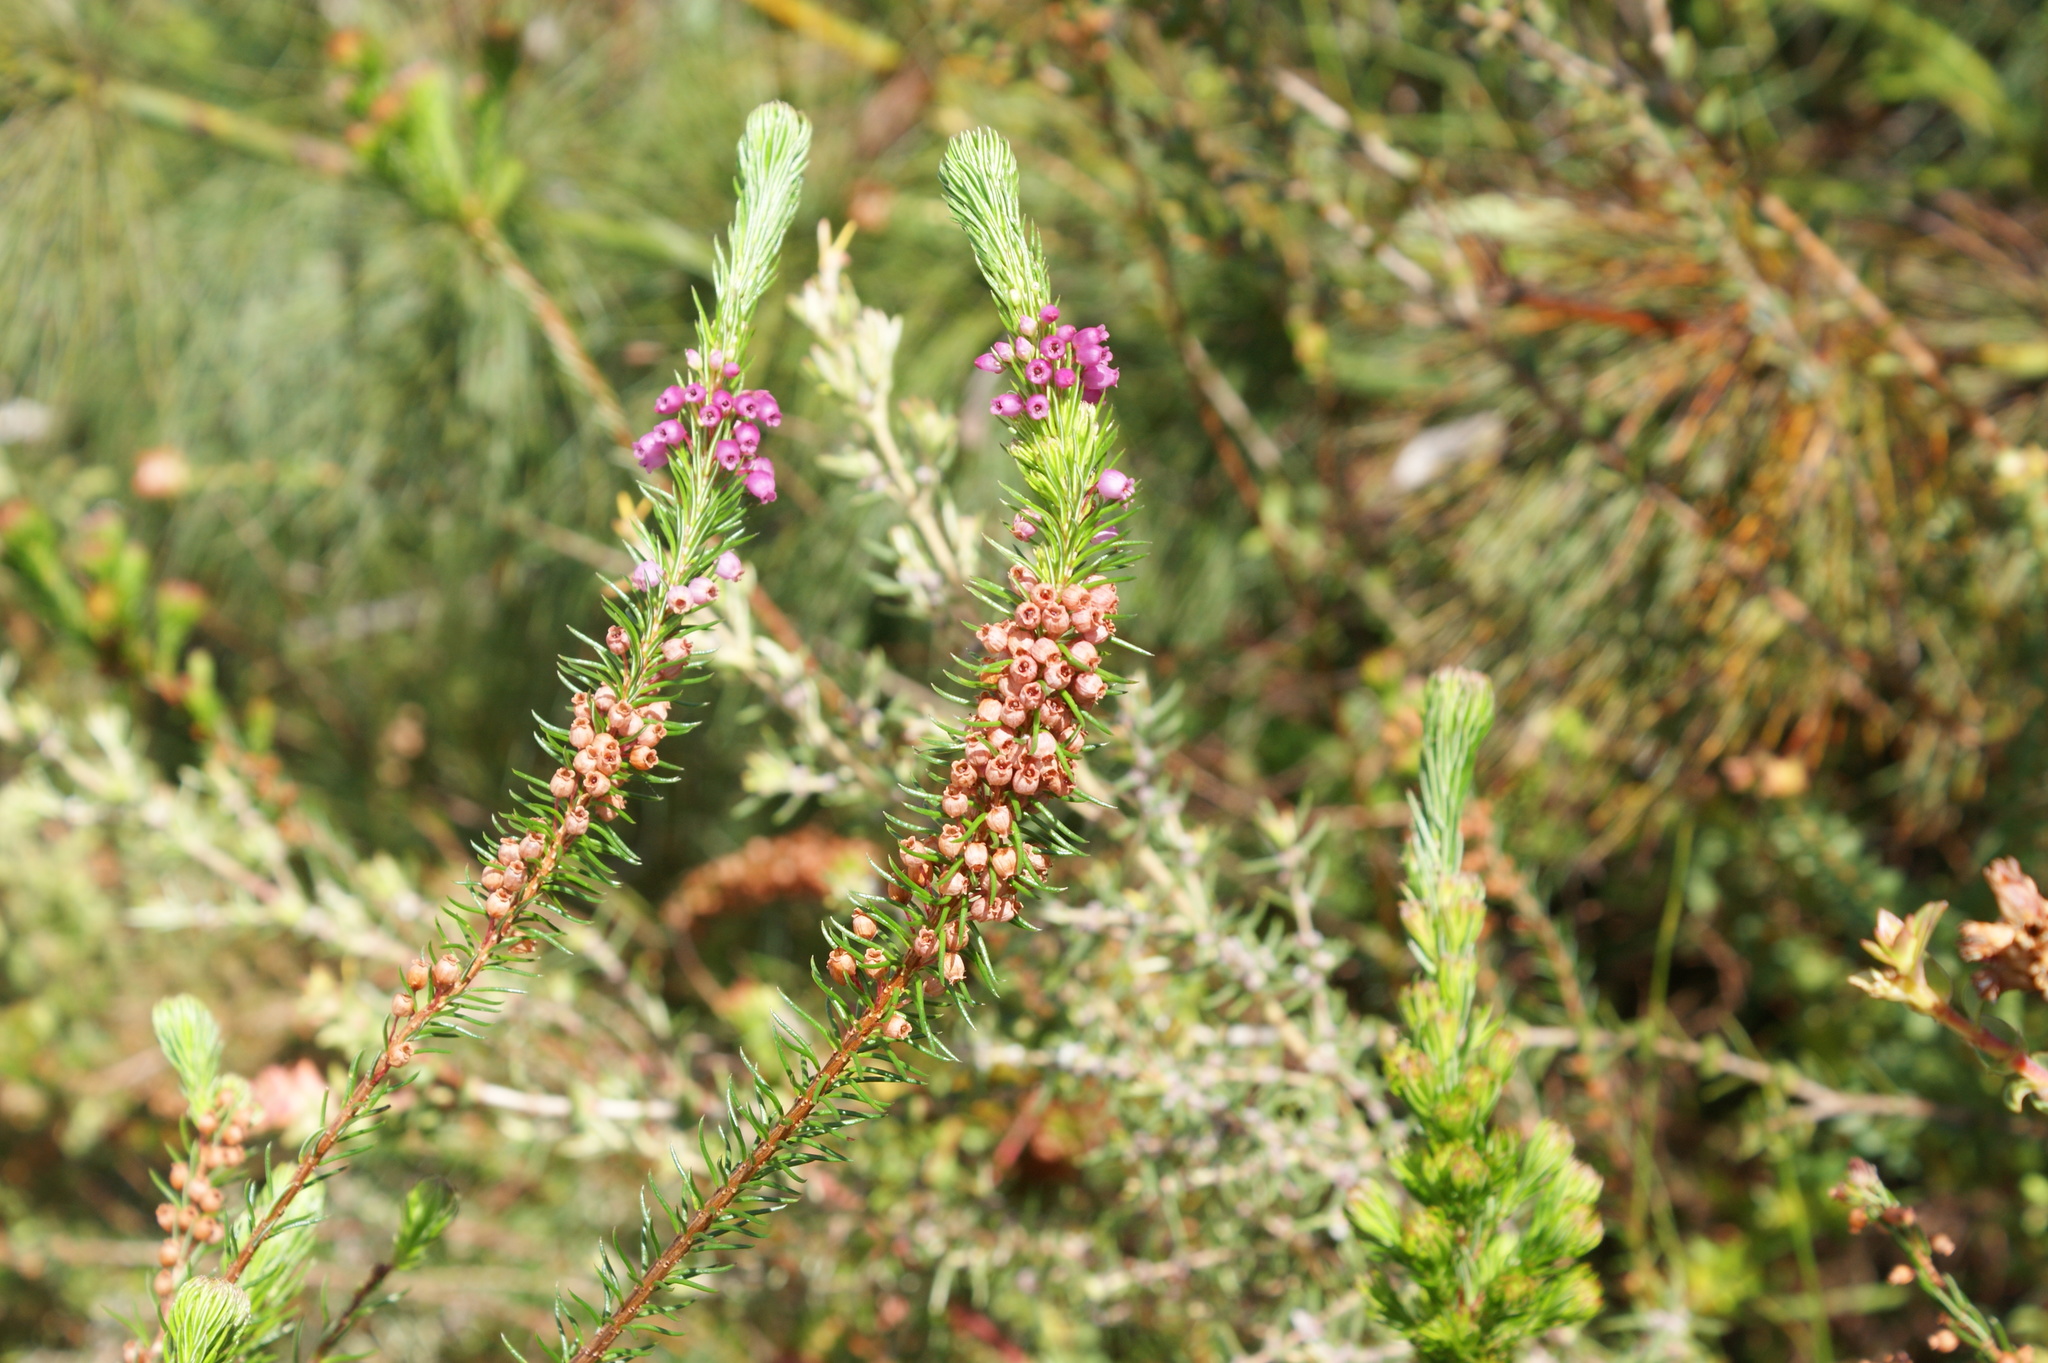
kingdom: Plantae
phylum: Tracheophyta
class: Magnoliopsida
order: Ericales
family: Ericaceae
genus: Erica
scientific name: Erica regerminans
